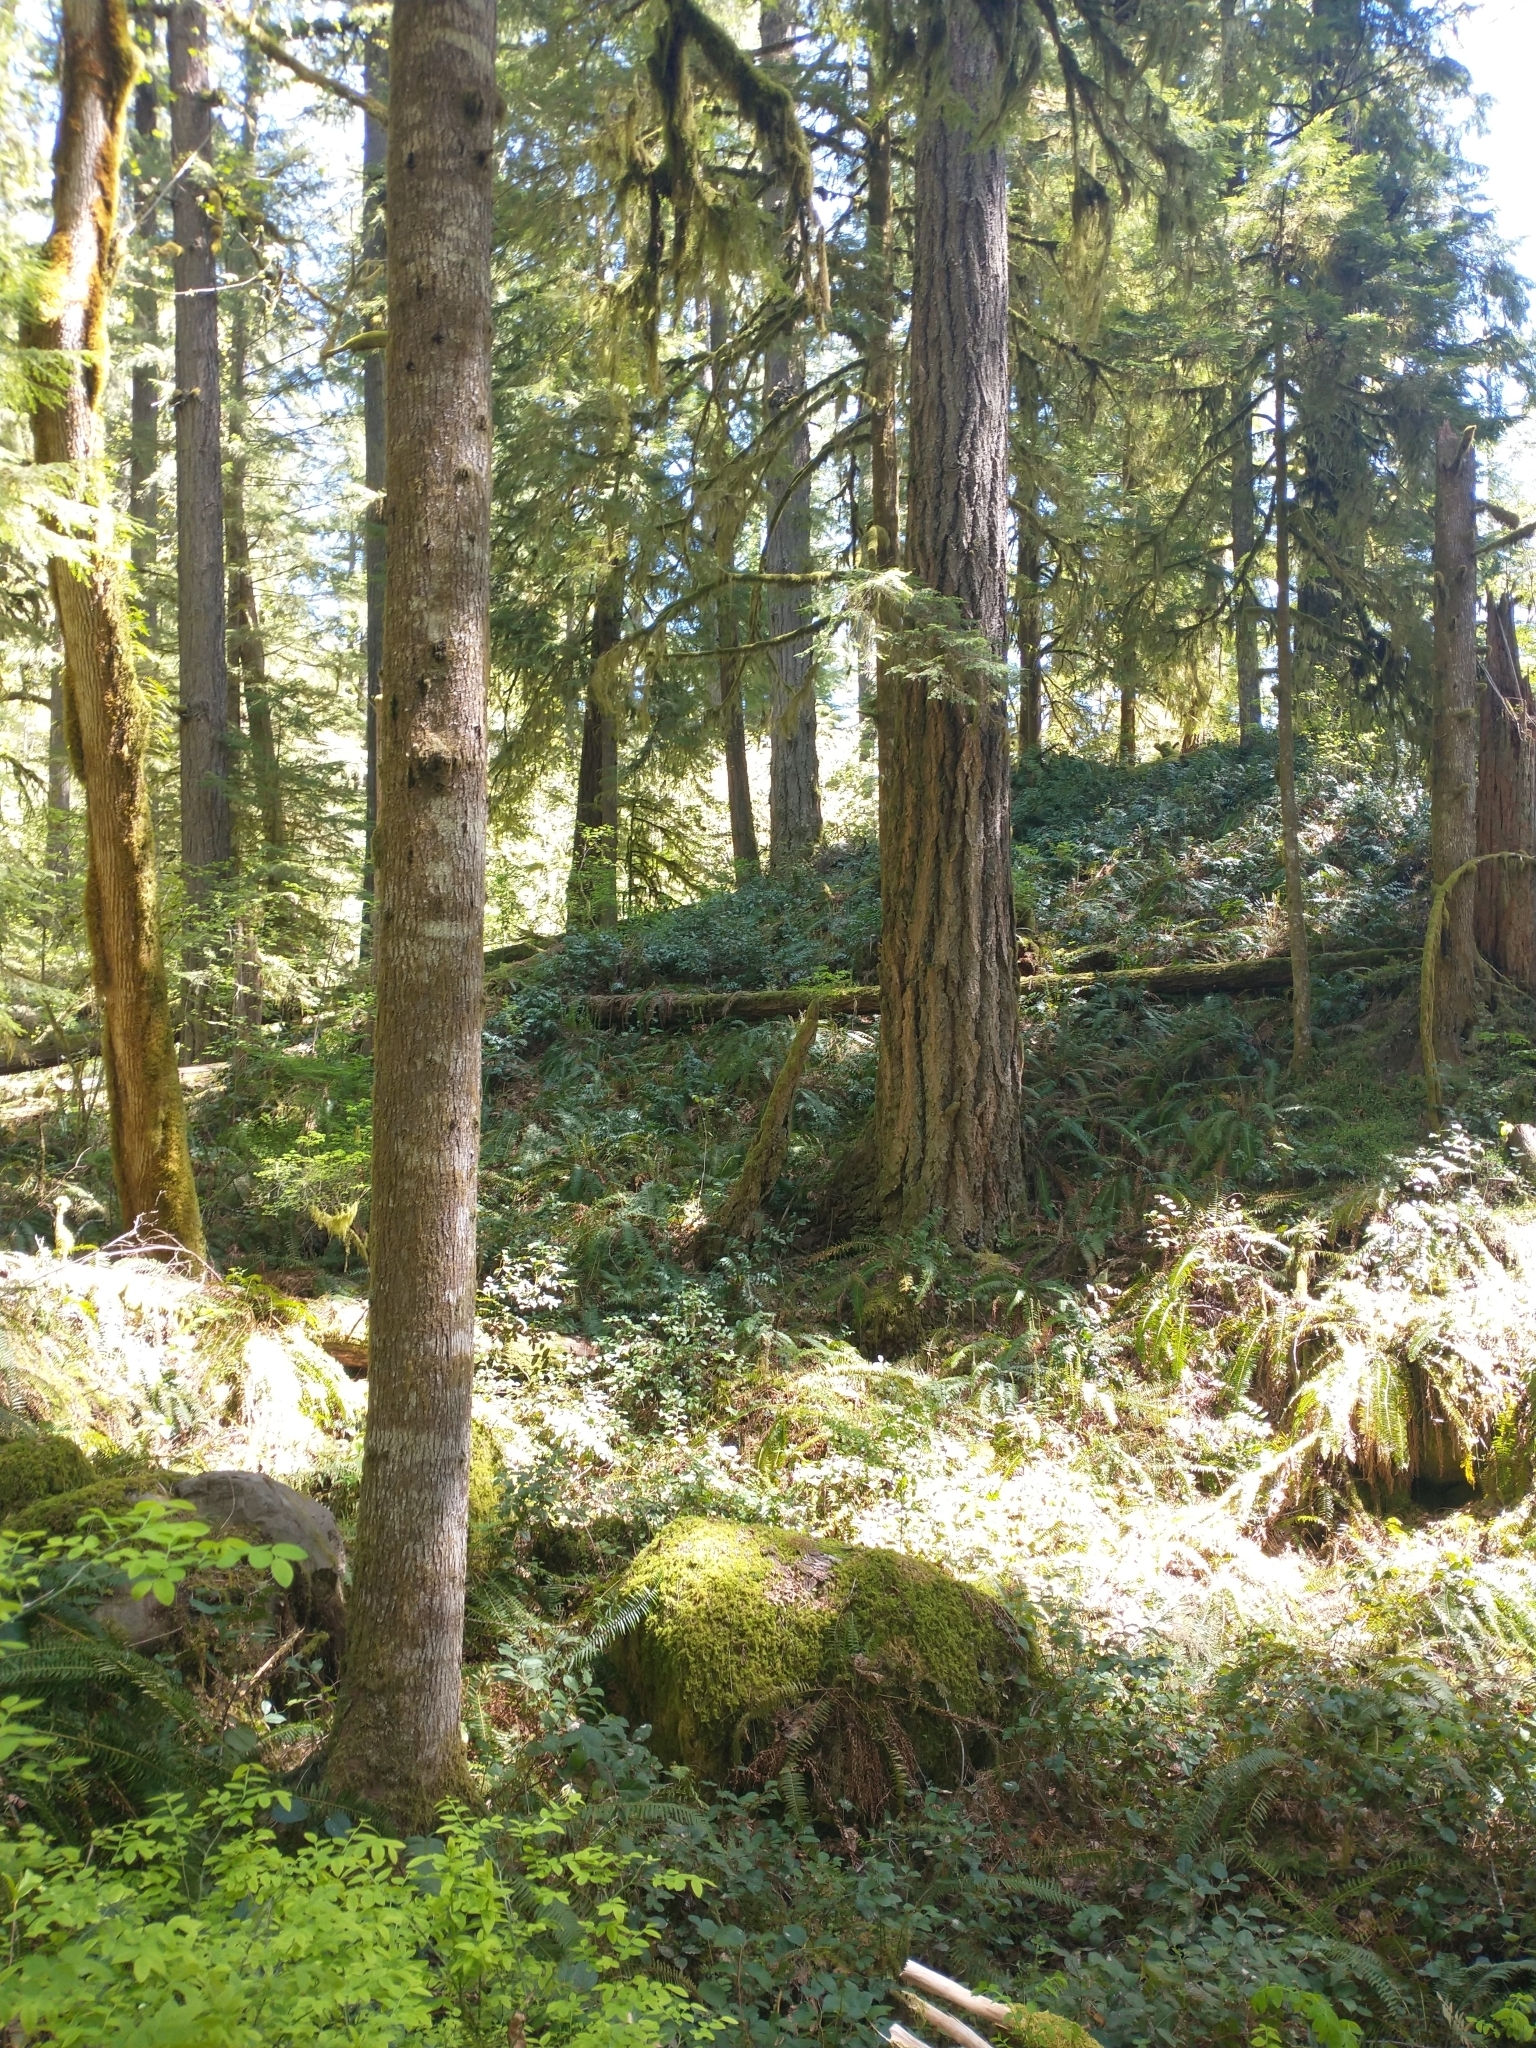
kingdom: Plantae
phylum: Tracheophyta
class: Pinopsida
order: Pinales
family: Pinaceae
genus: Tsuga
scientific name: Tsuga heterophylla
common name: Western hemlock
